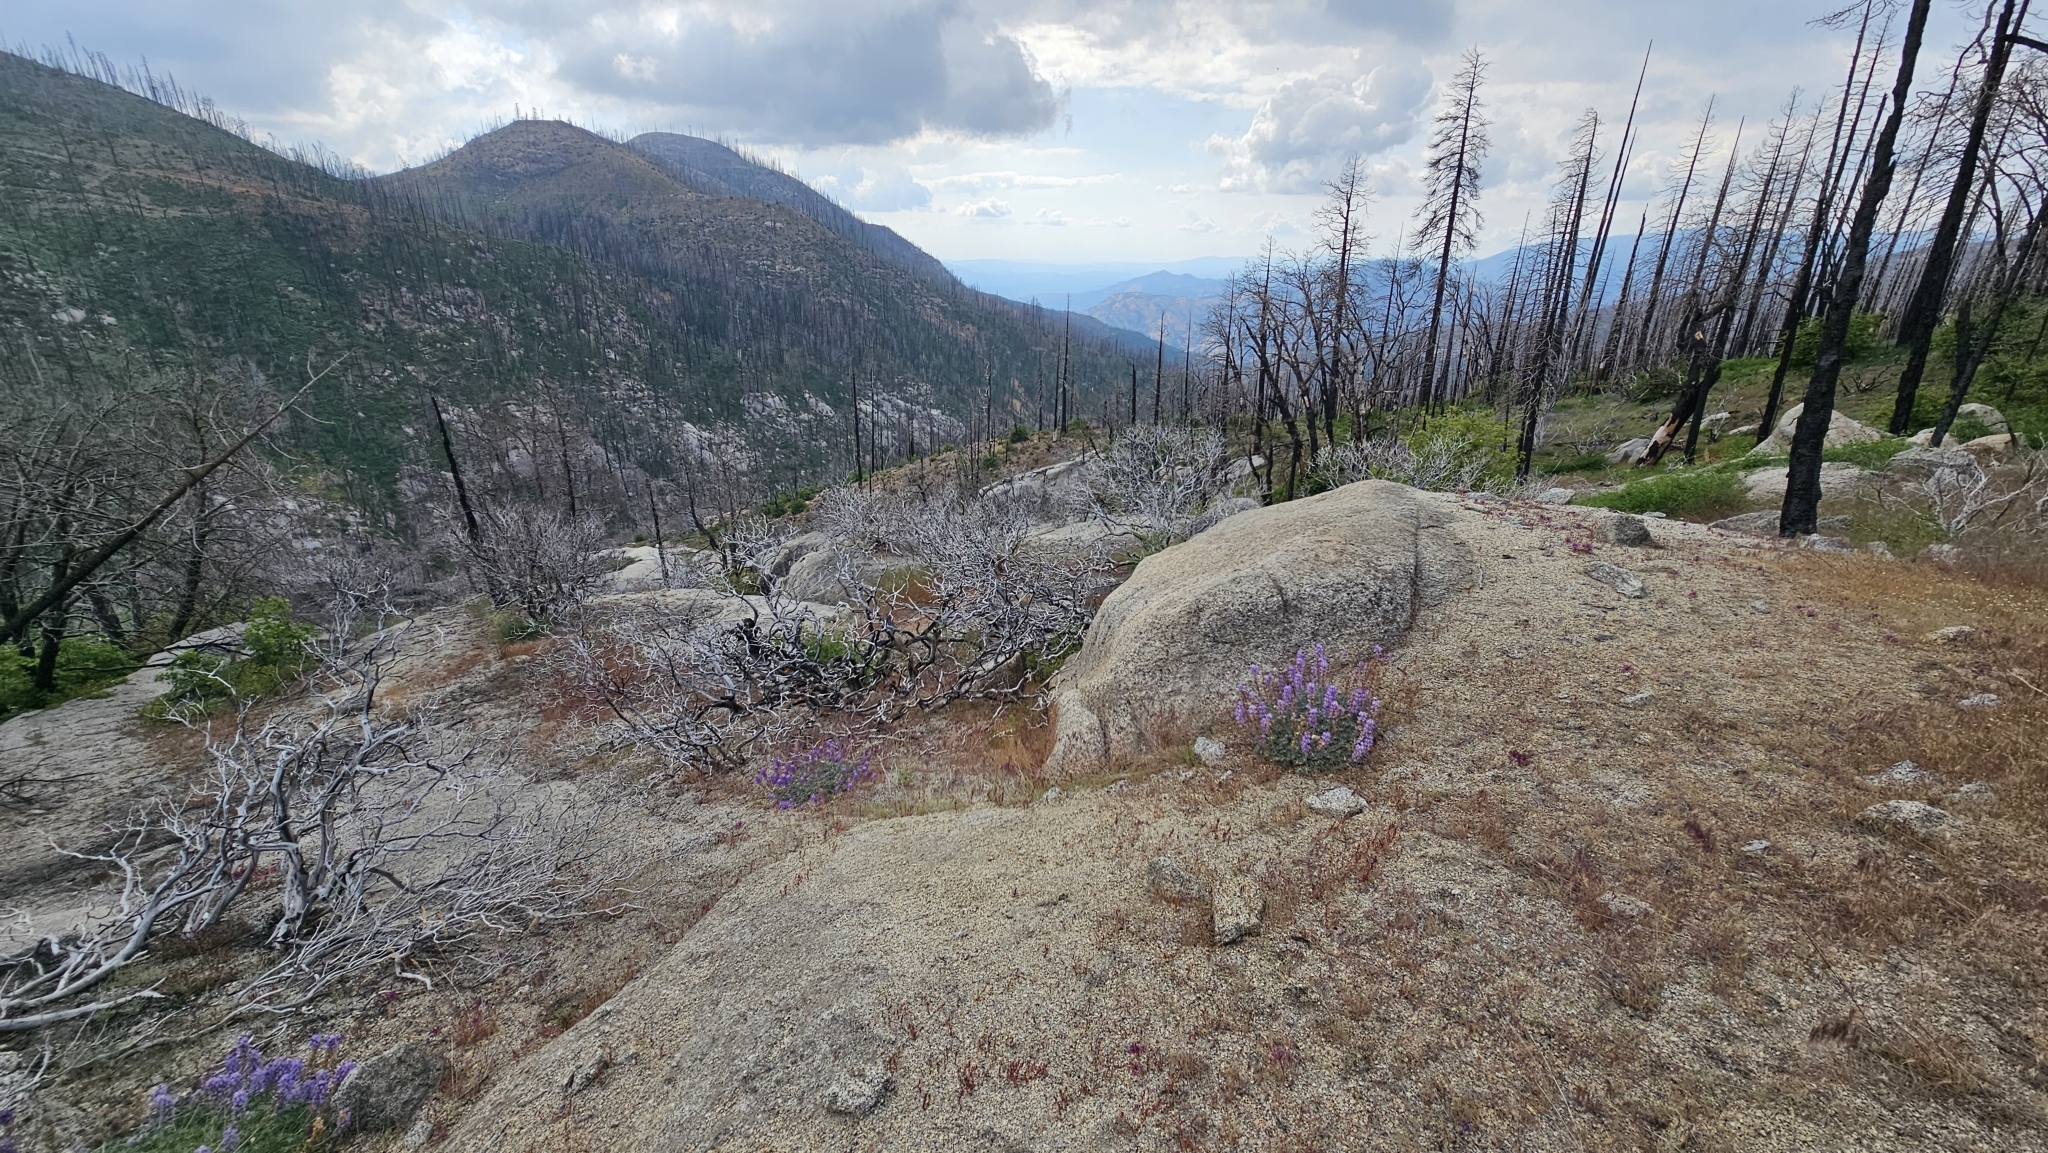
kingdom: Plantae
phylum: Tracheophyta
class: Liliopsida
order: Asparagales
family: Amaryllidaceae
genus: Allium
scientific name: Allium abramsii
